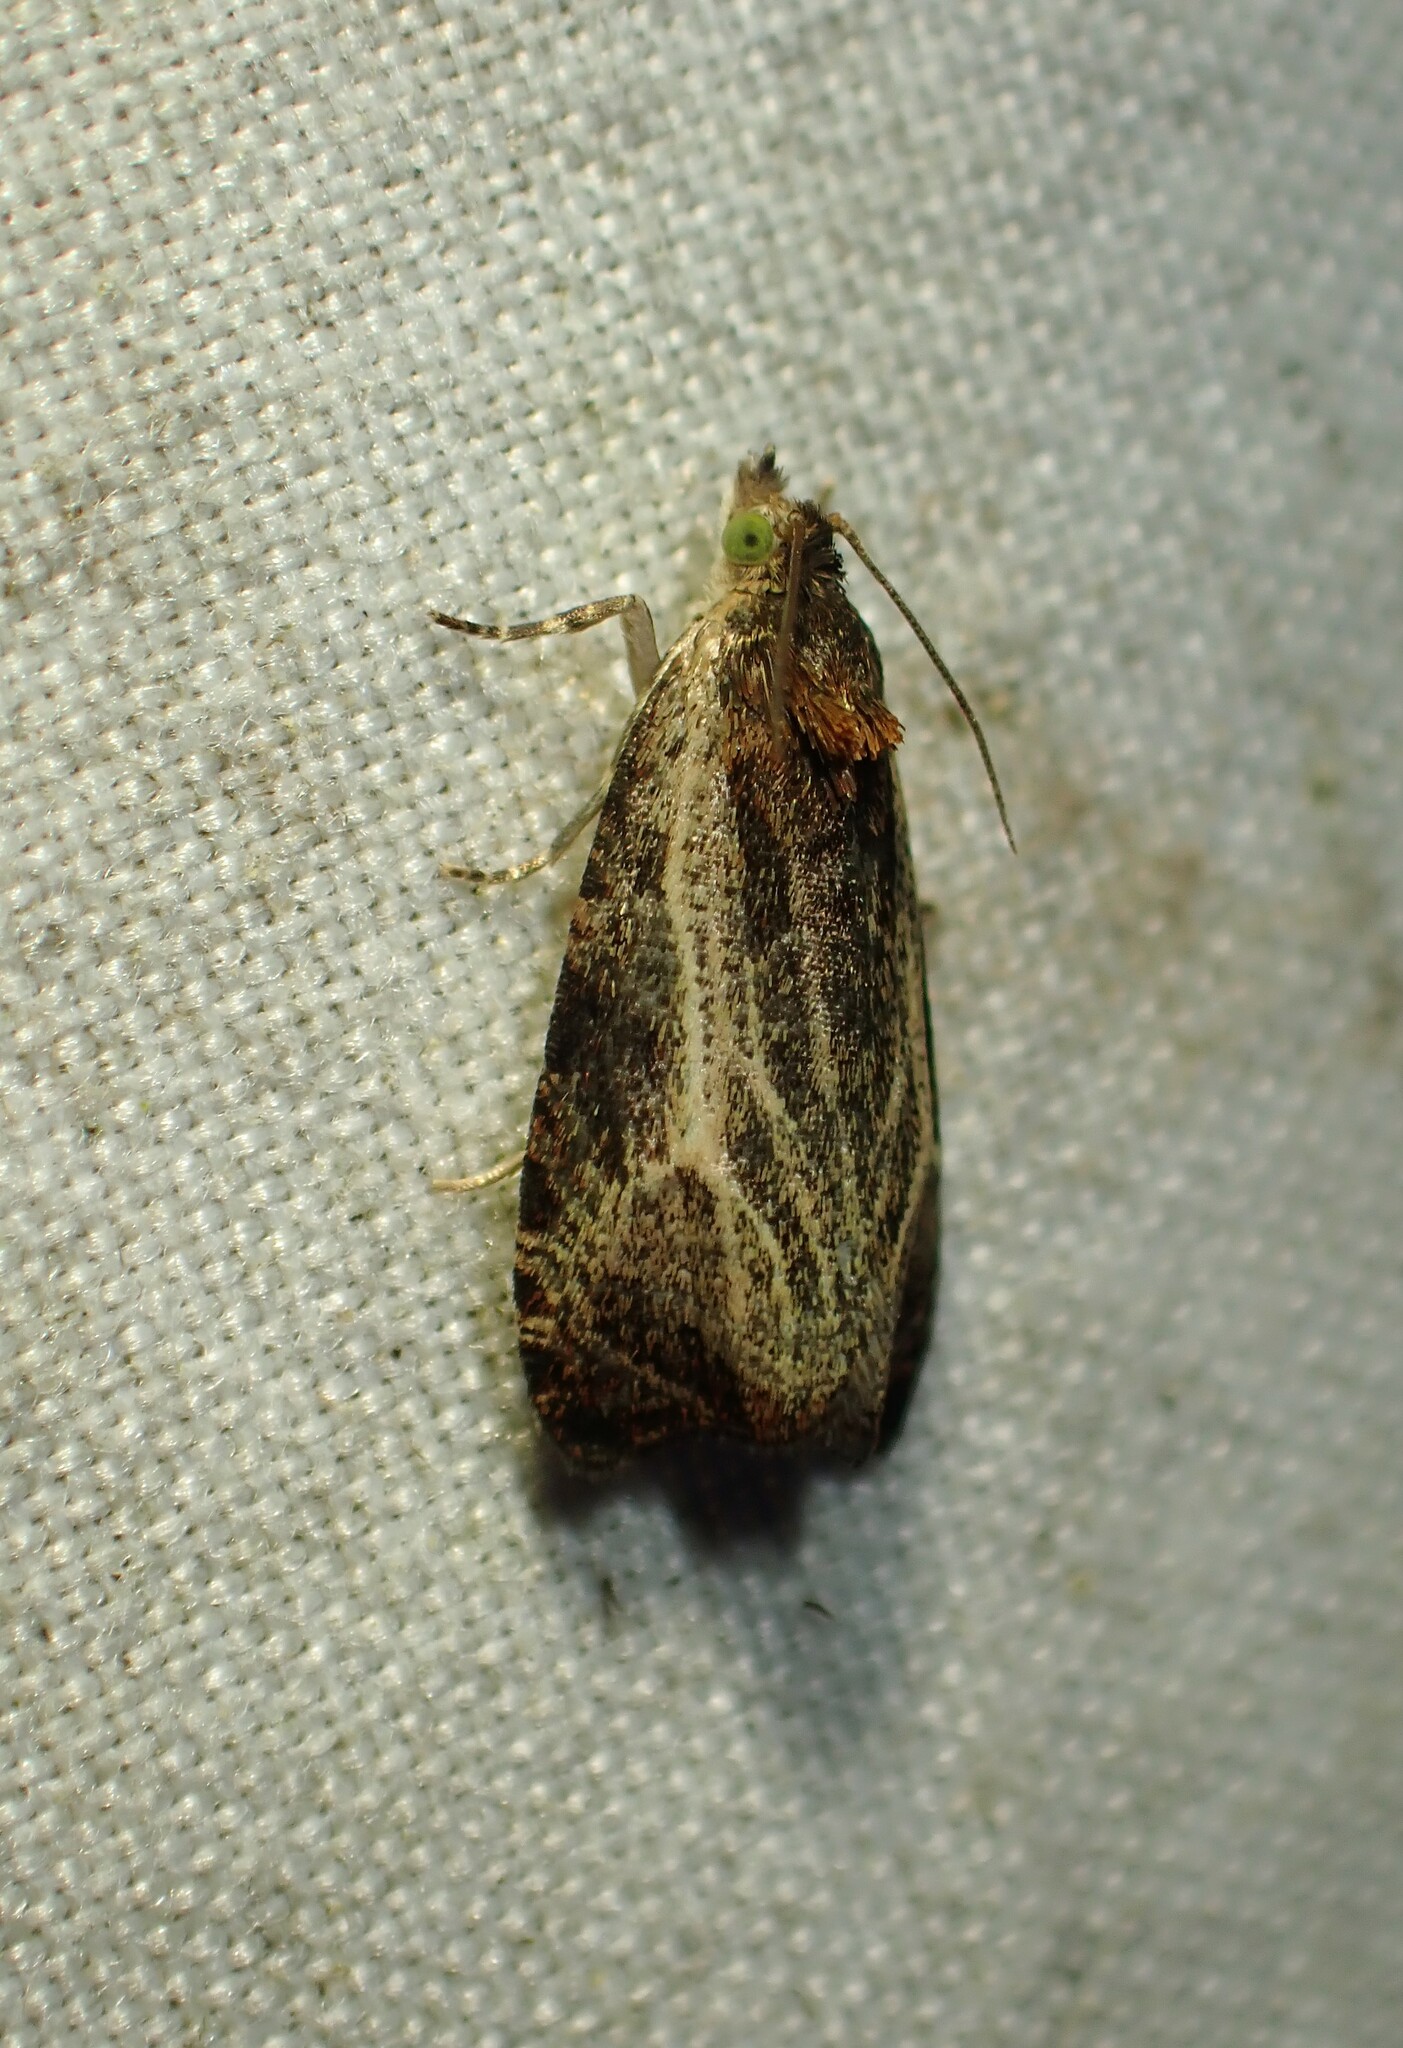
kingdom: Animalia
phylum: Arthropoda
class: Insecta
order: Lepidoptera
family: Tortricidae
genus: Olethreutes
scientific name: Olethreutes quadrifidum
